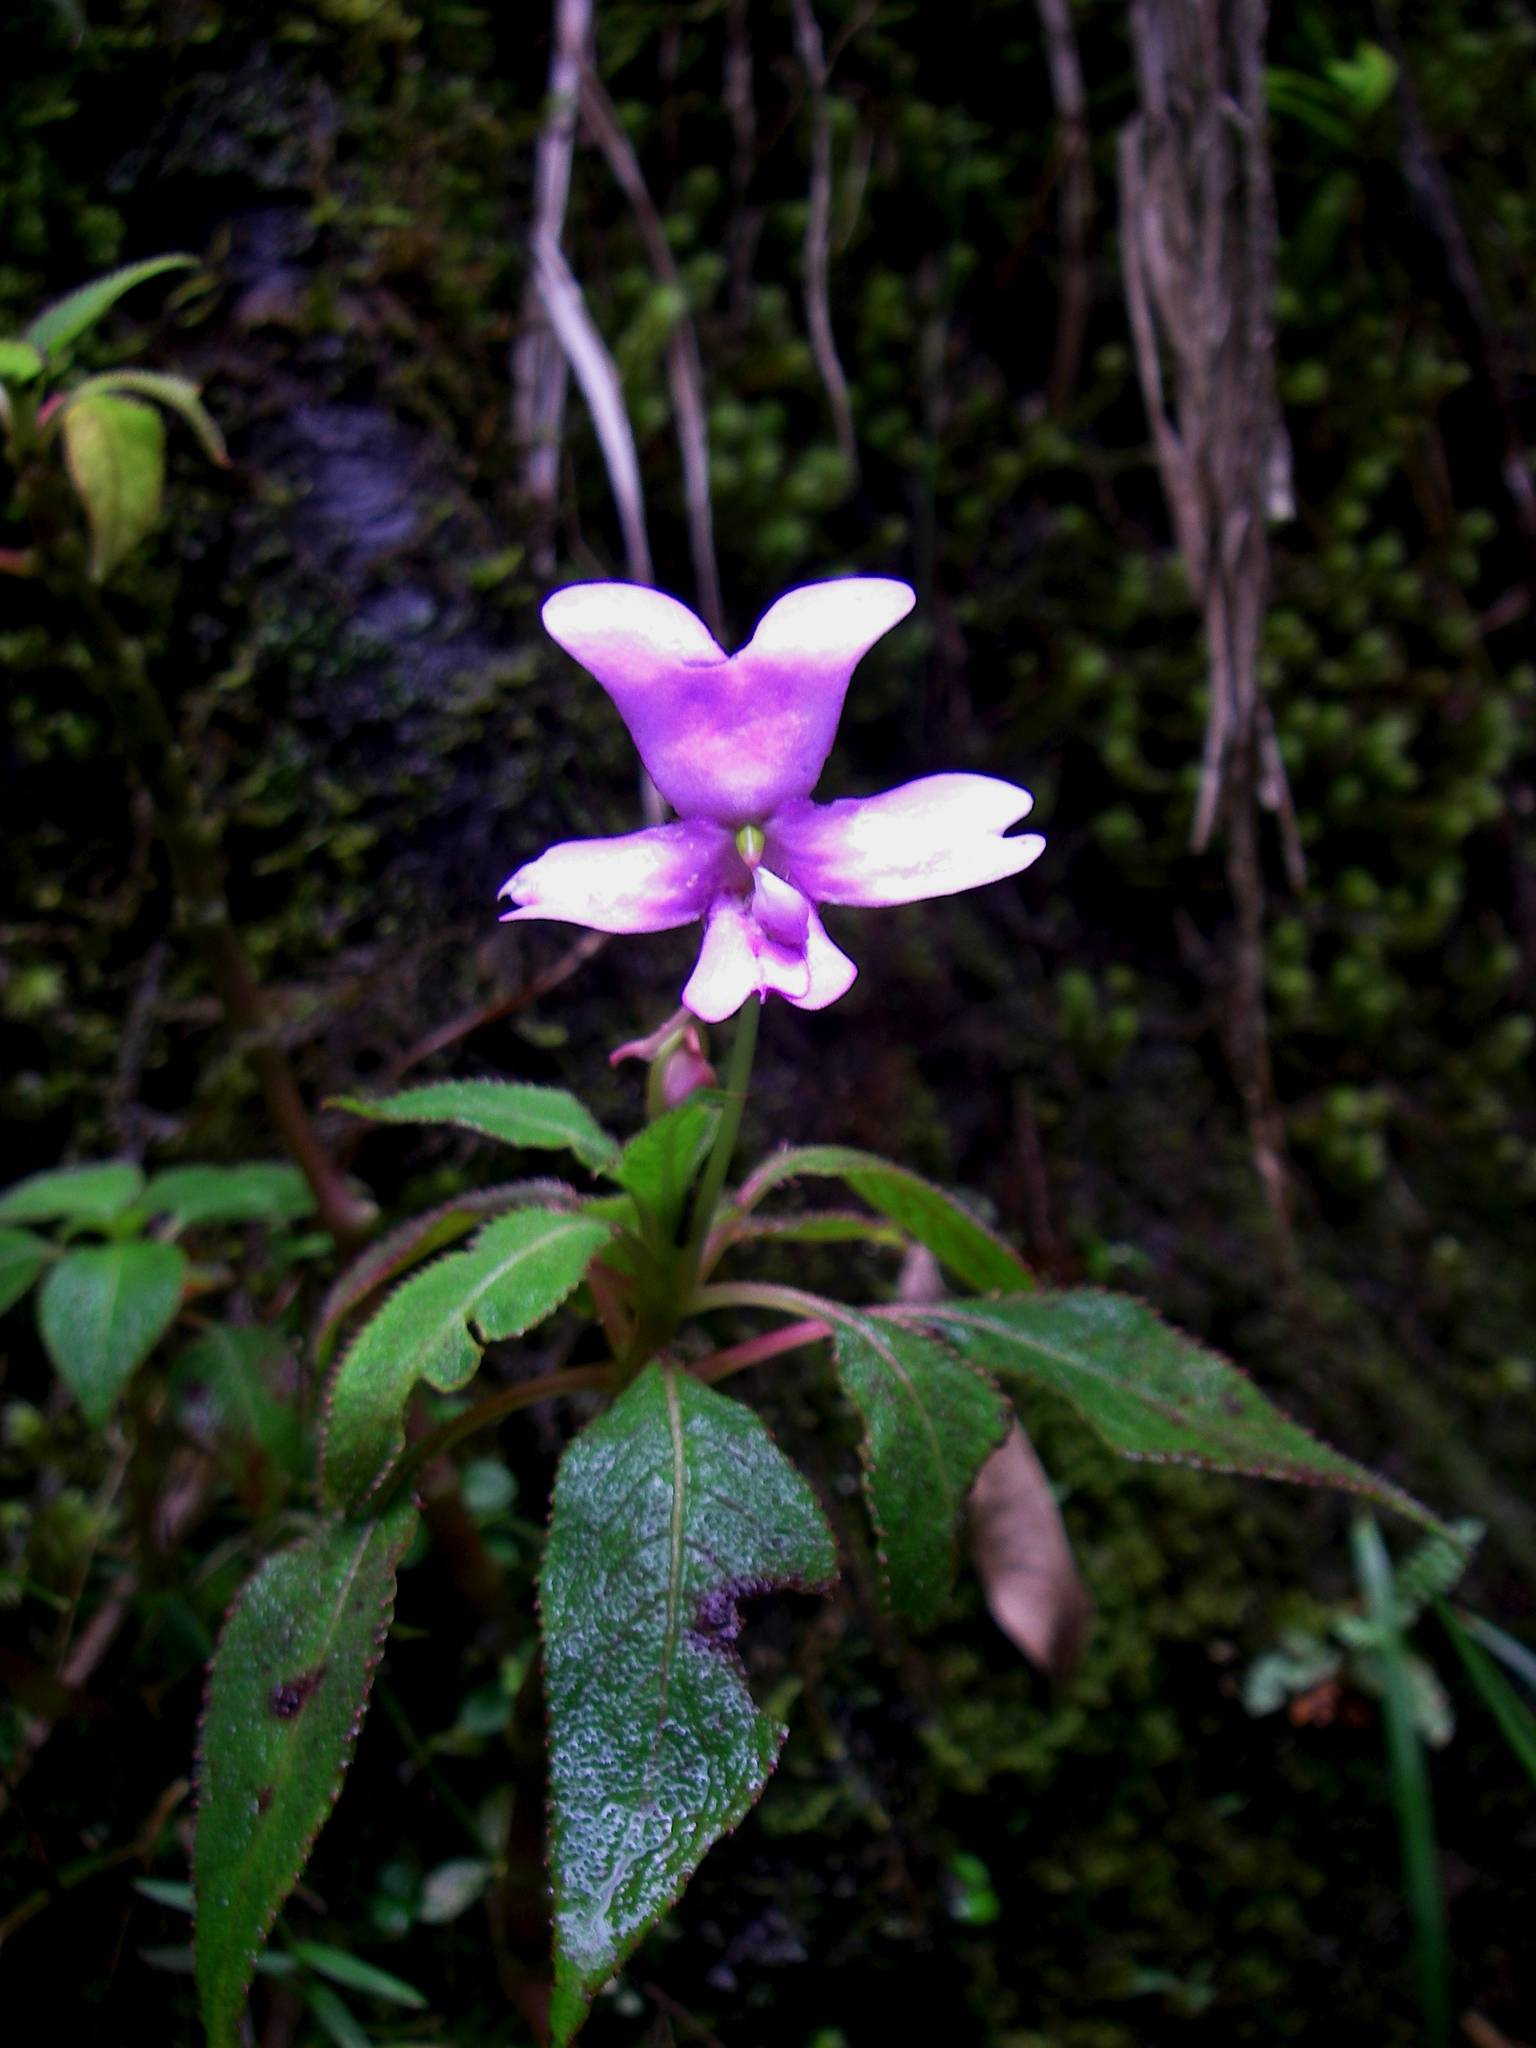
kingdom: Plantae
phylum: Tracheophyta
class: Magnoliopsida
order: Ericales
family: Balsaminaceae
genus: Impatiens
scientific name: Impatiens kinabaluensis
